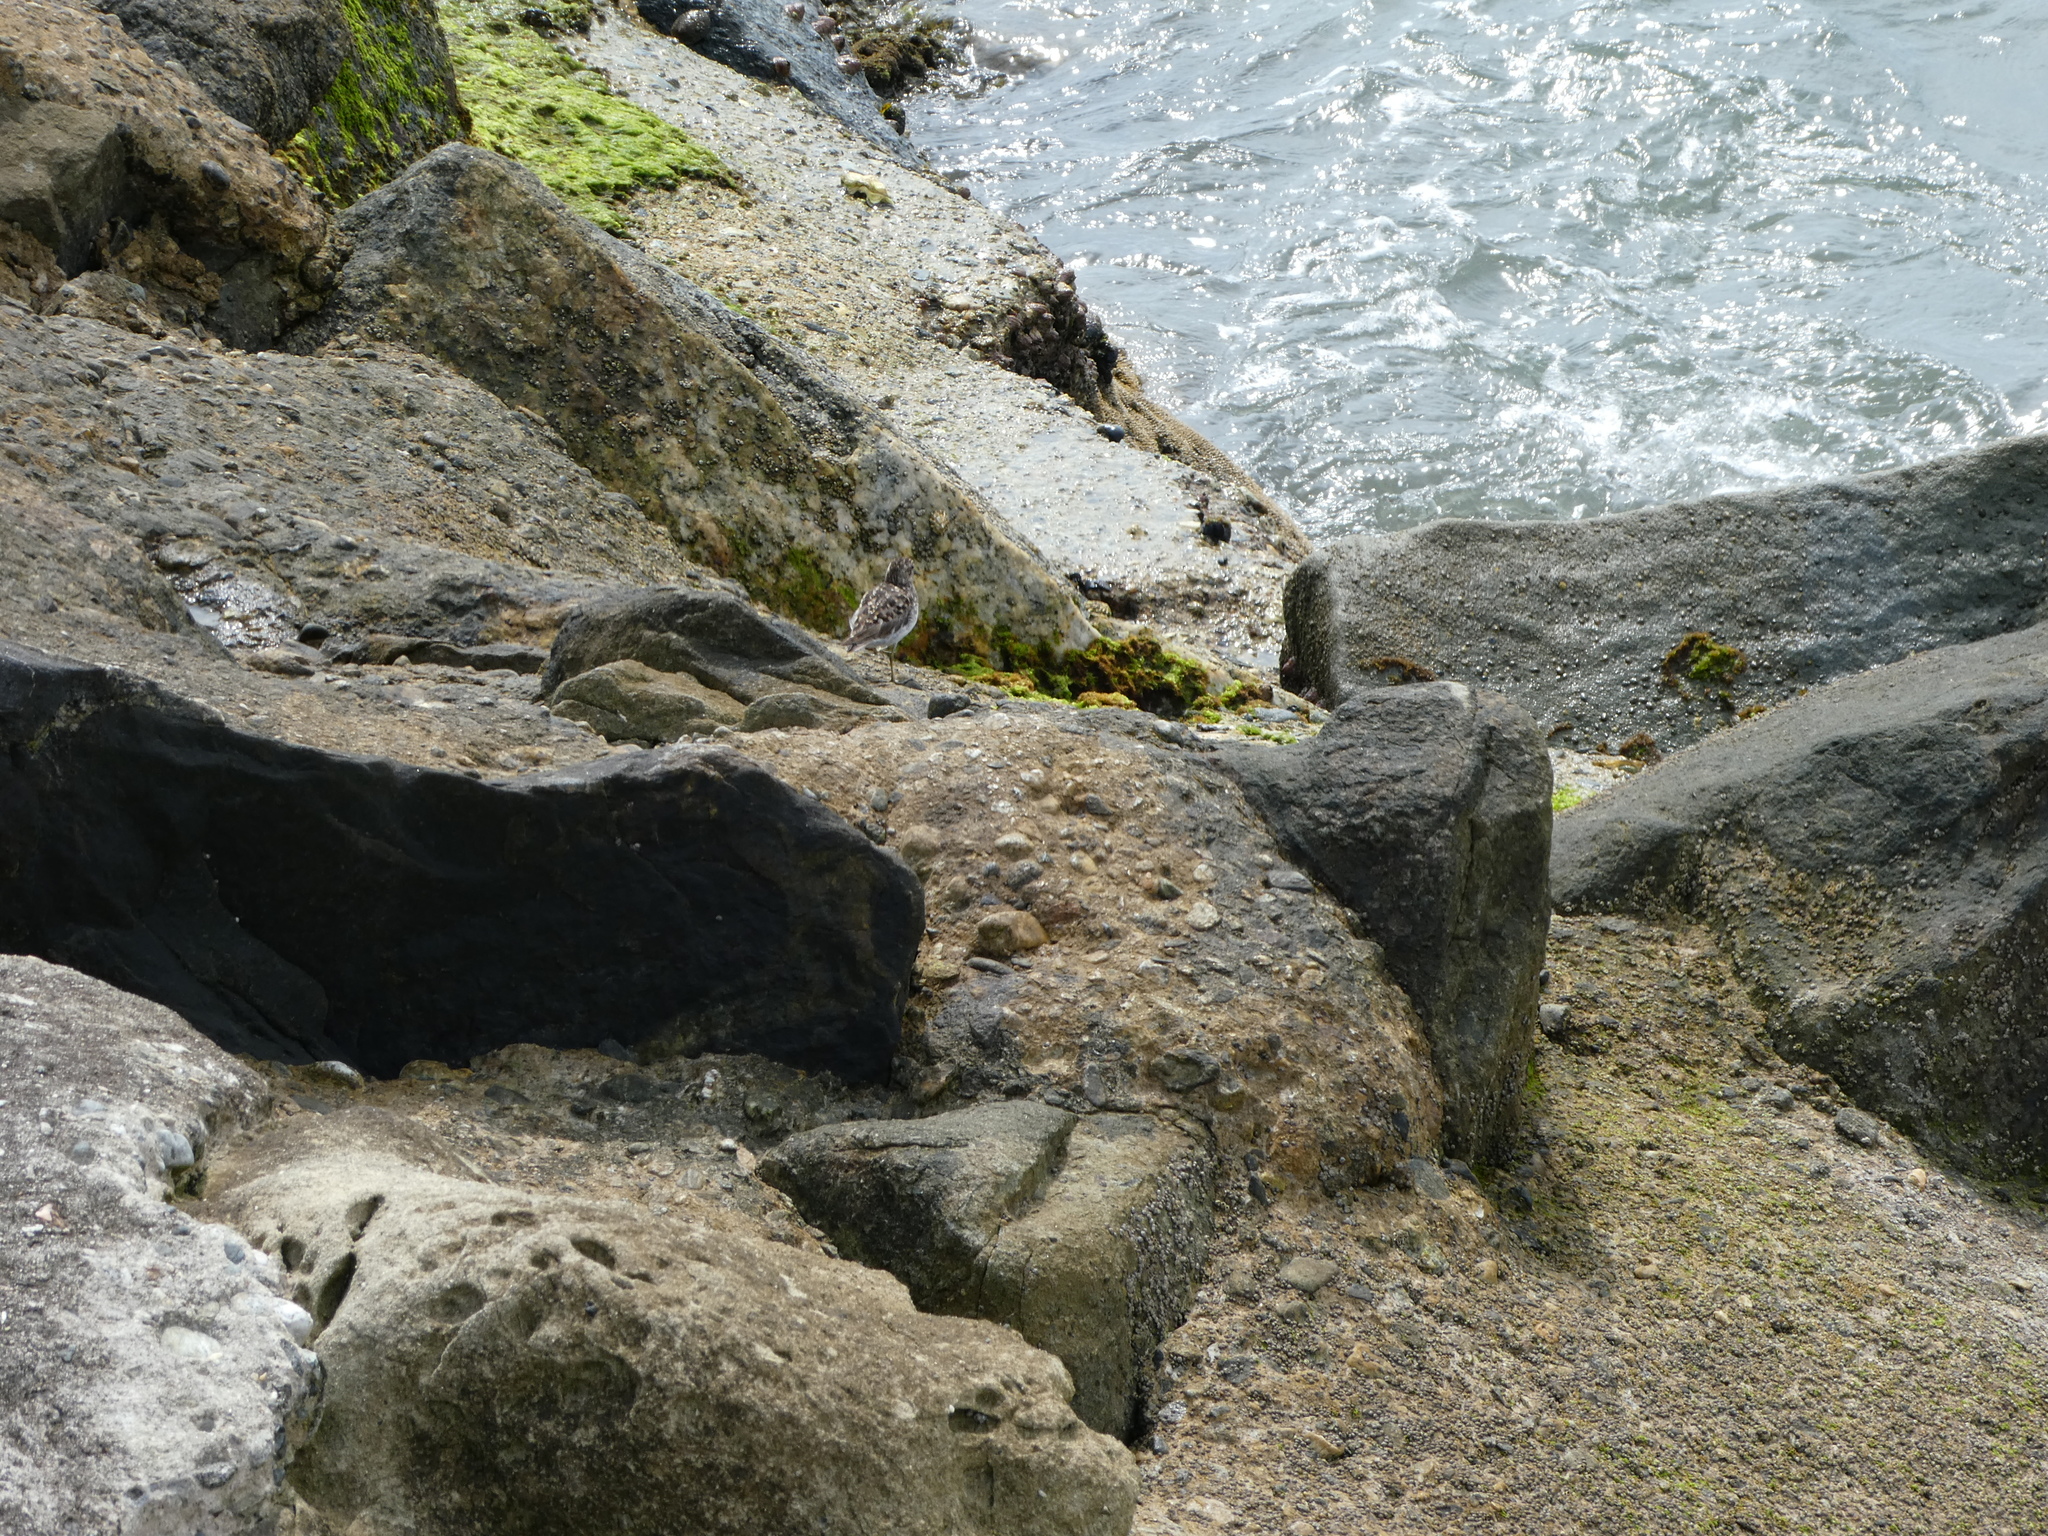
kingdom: Animalia
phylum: Chordata
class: Aves
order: Charadriiformes
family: Scolopacidae
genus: Calidris
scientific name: Calidris minutilla
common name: Least sandpiper
